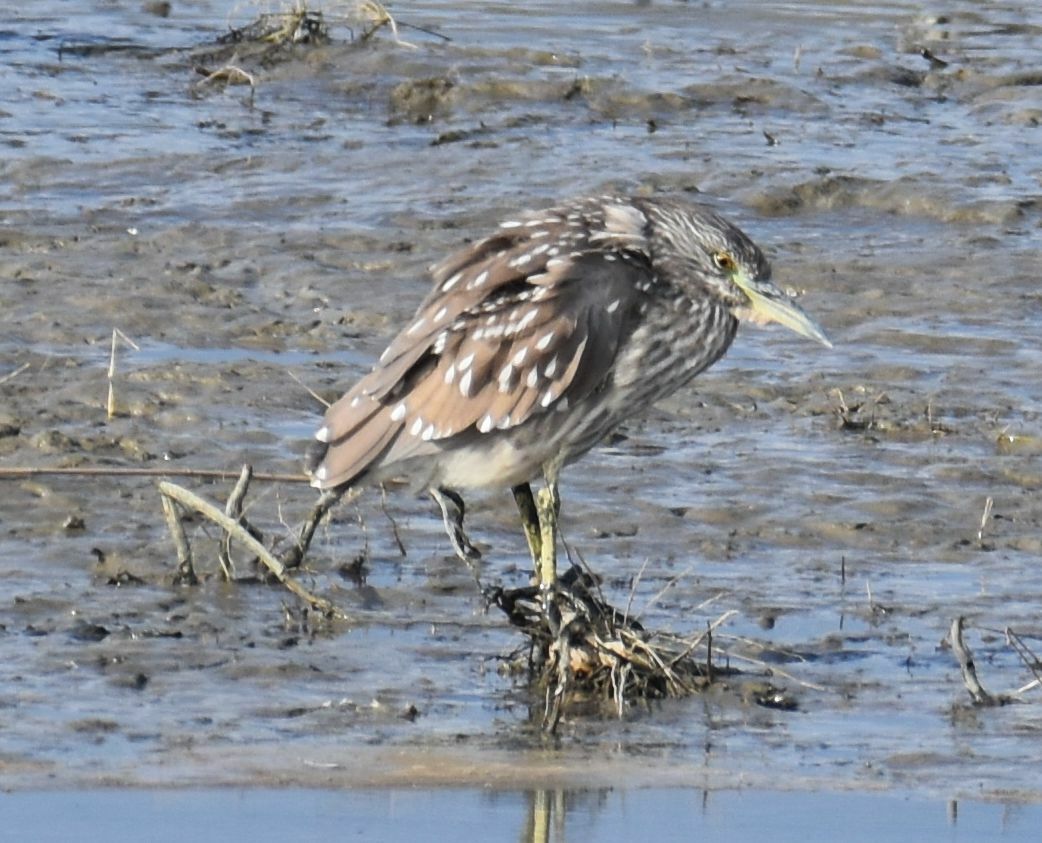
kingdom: Animalia
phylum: Chordata
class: Aves
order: Pelecaniformes
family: Ardeidae
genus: Nycticorax
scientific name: Nycticorax nycticorax
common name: Black-crowned night heron
